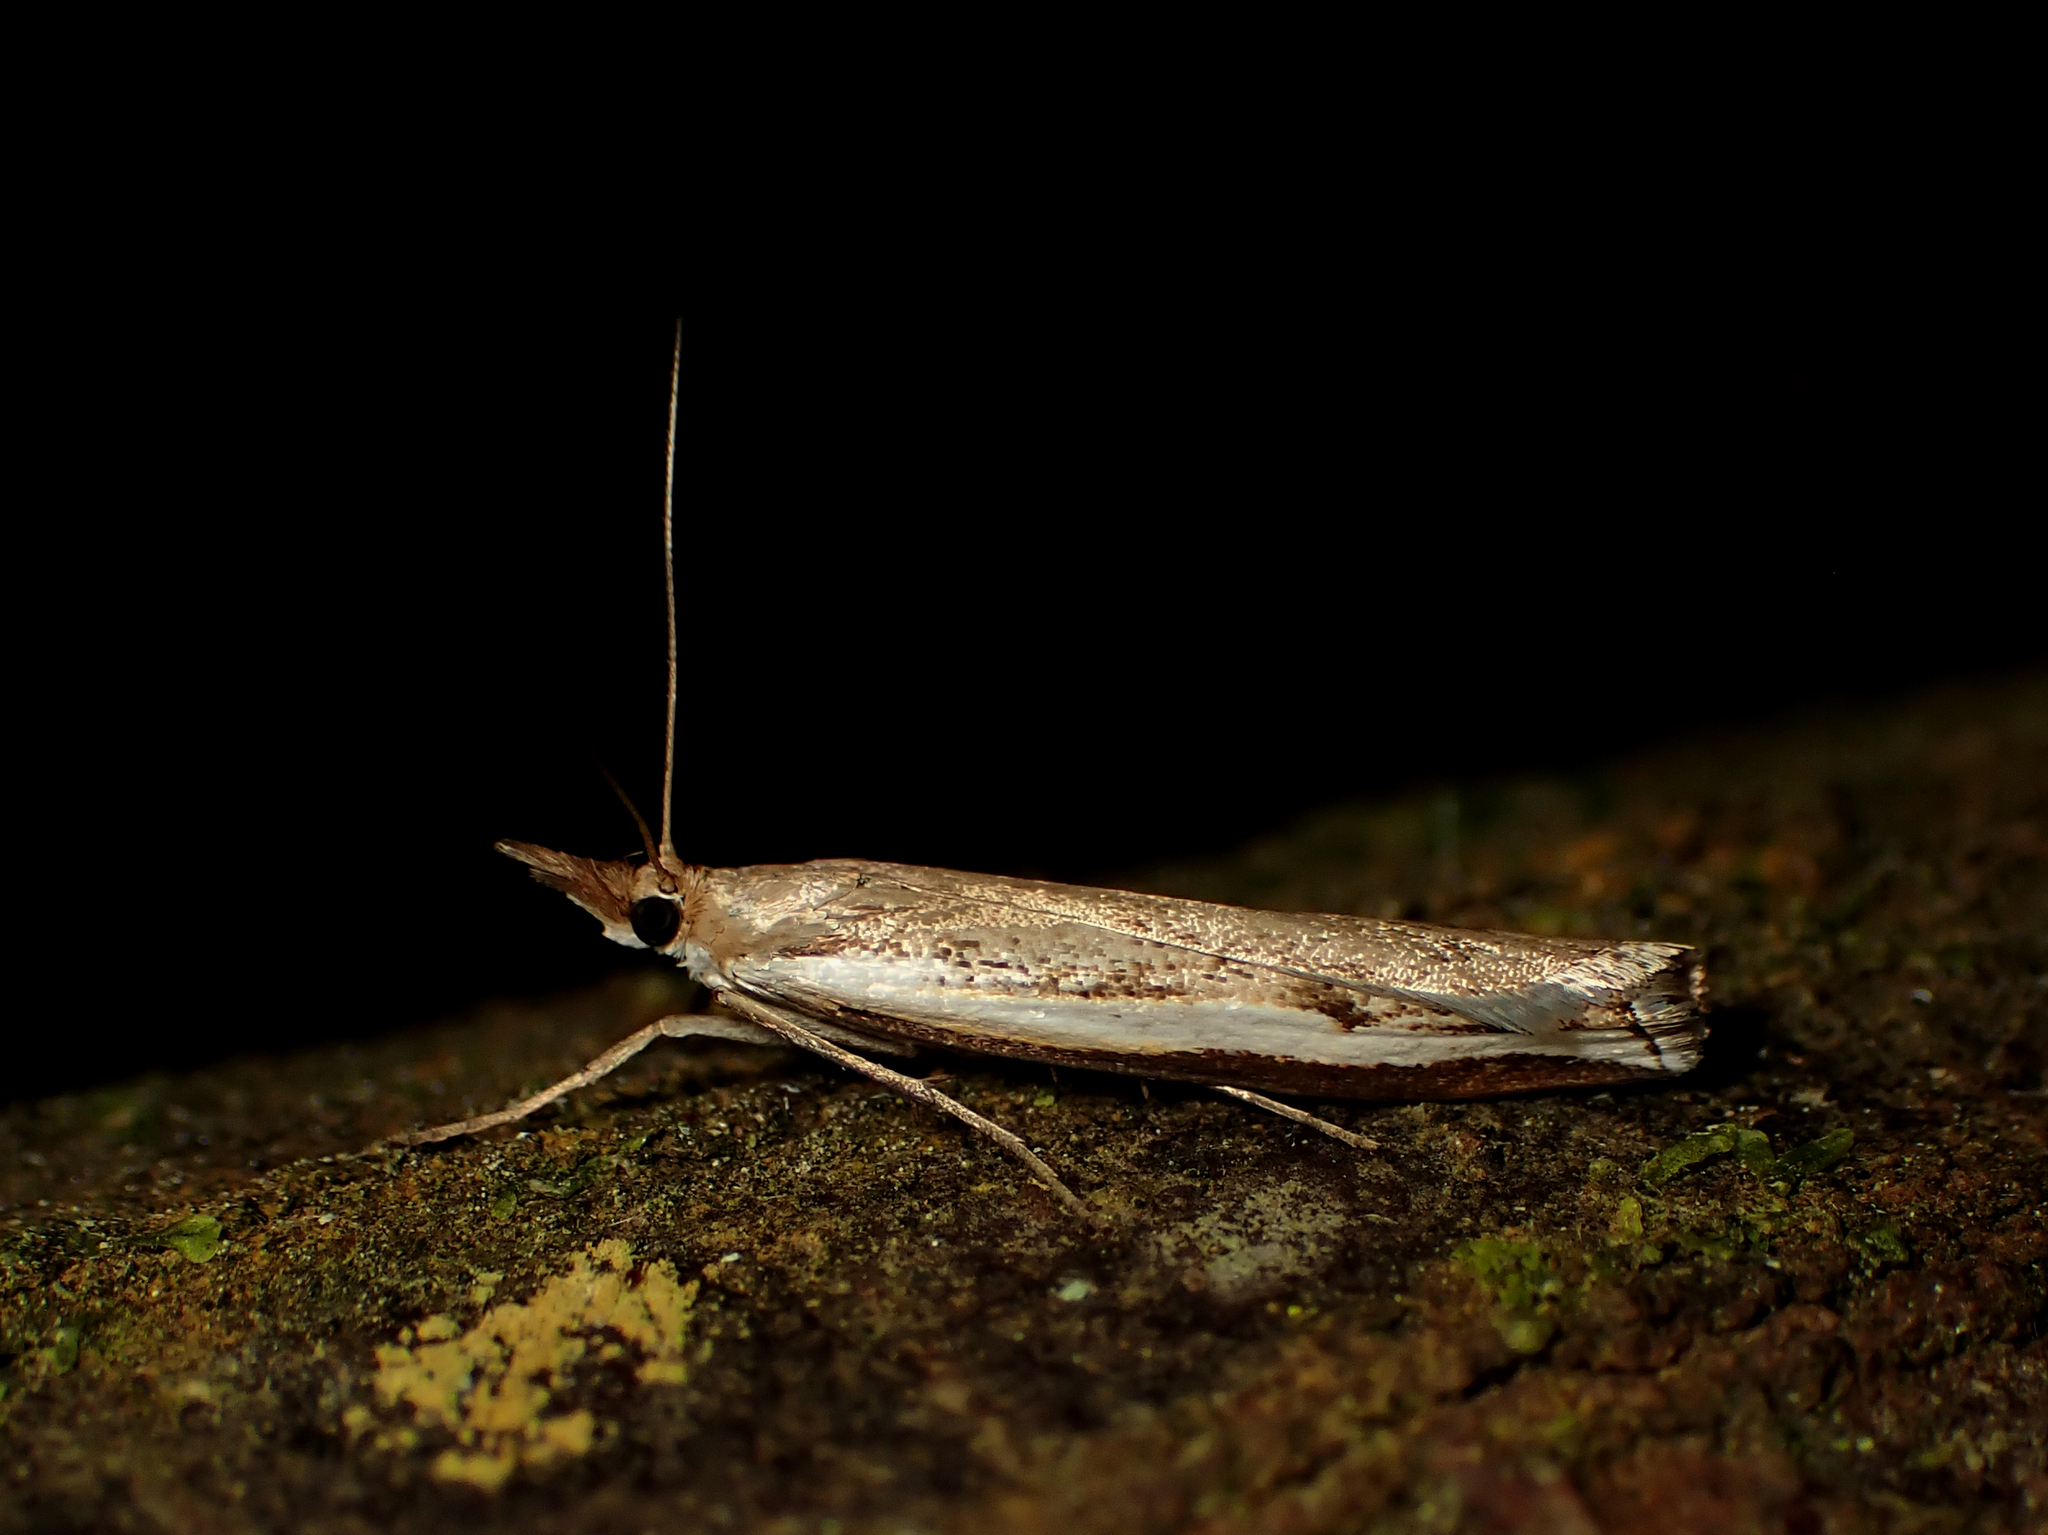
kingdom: Animalia
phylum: Arthropoda
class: Insecta
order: Lepidoptera
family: Crambidae
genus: Orocrambus
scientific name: Orocrambus flexuosellus
